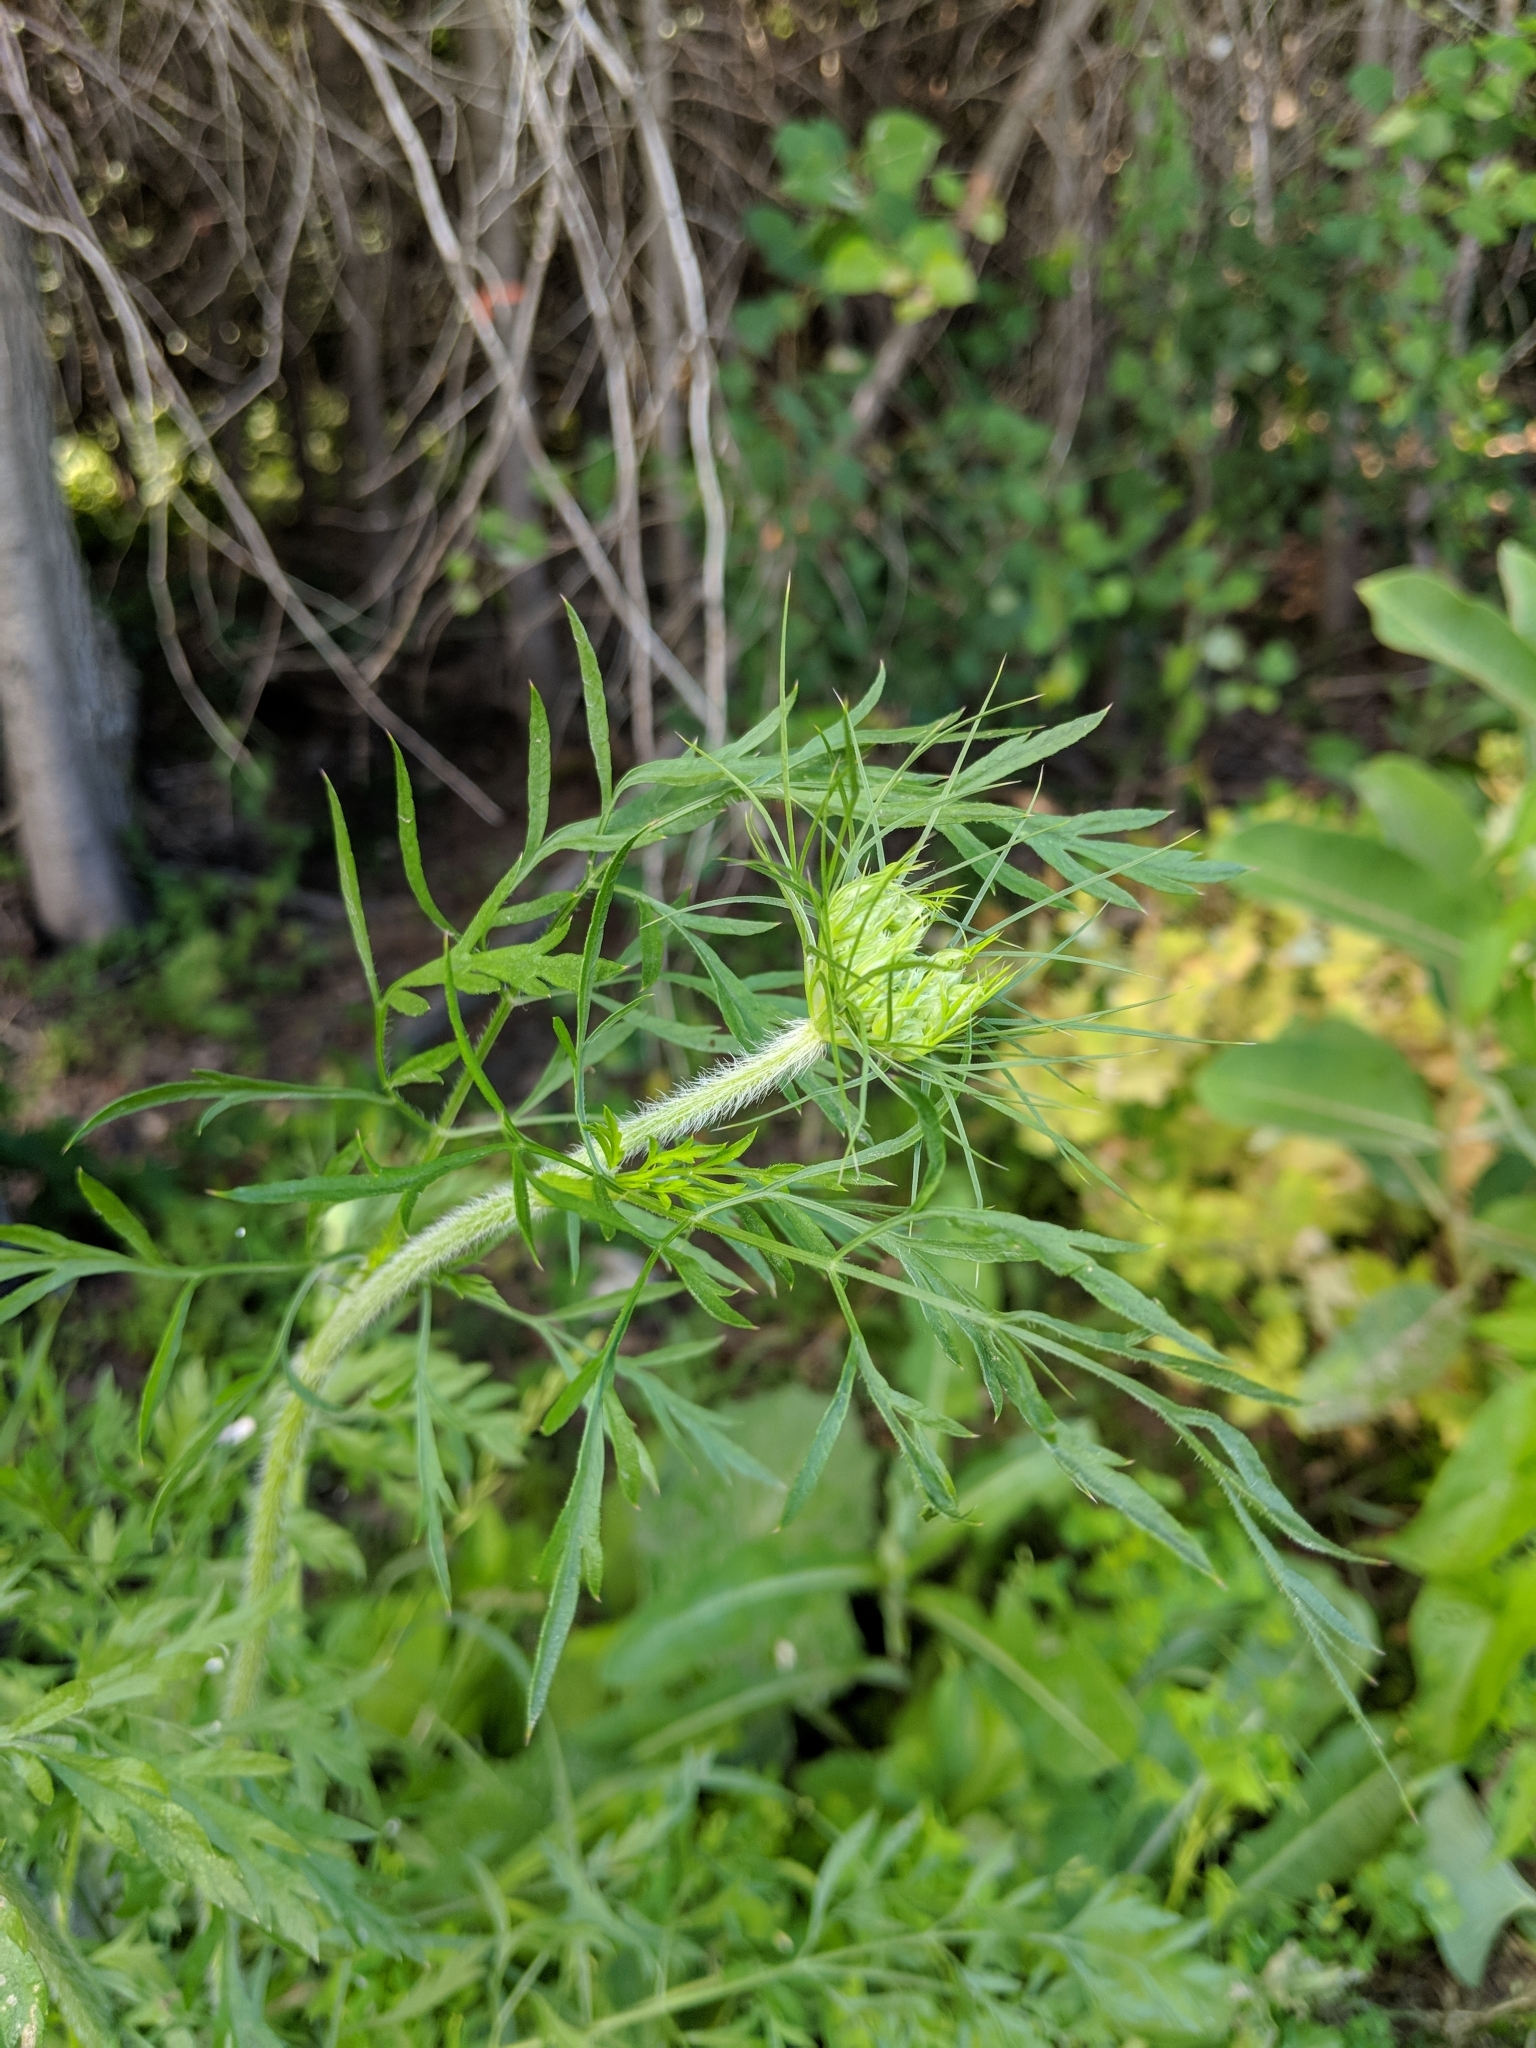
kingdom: Plantae
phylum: Tracheophyta
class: Magnoliopsida
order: Apiales
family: Apiaceae
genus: Daucus
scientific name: Daucus carota
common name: Wild carrot
